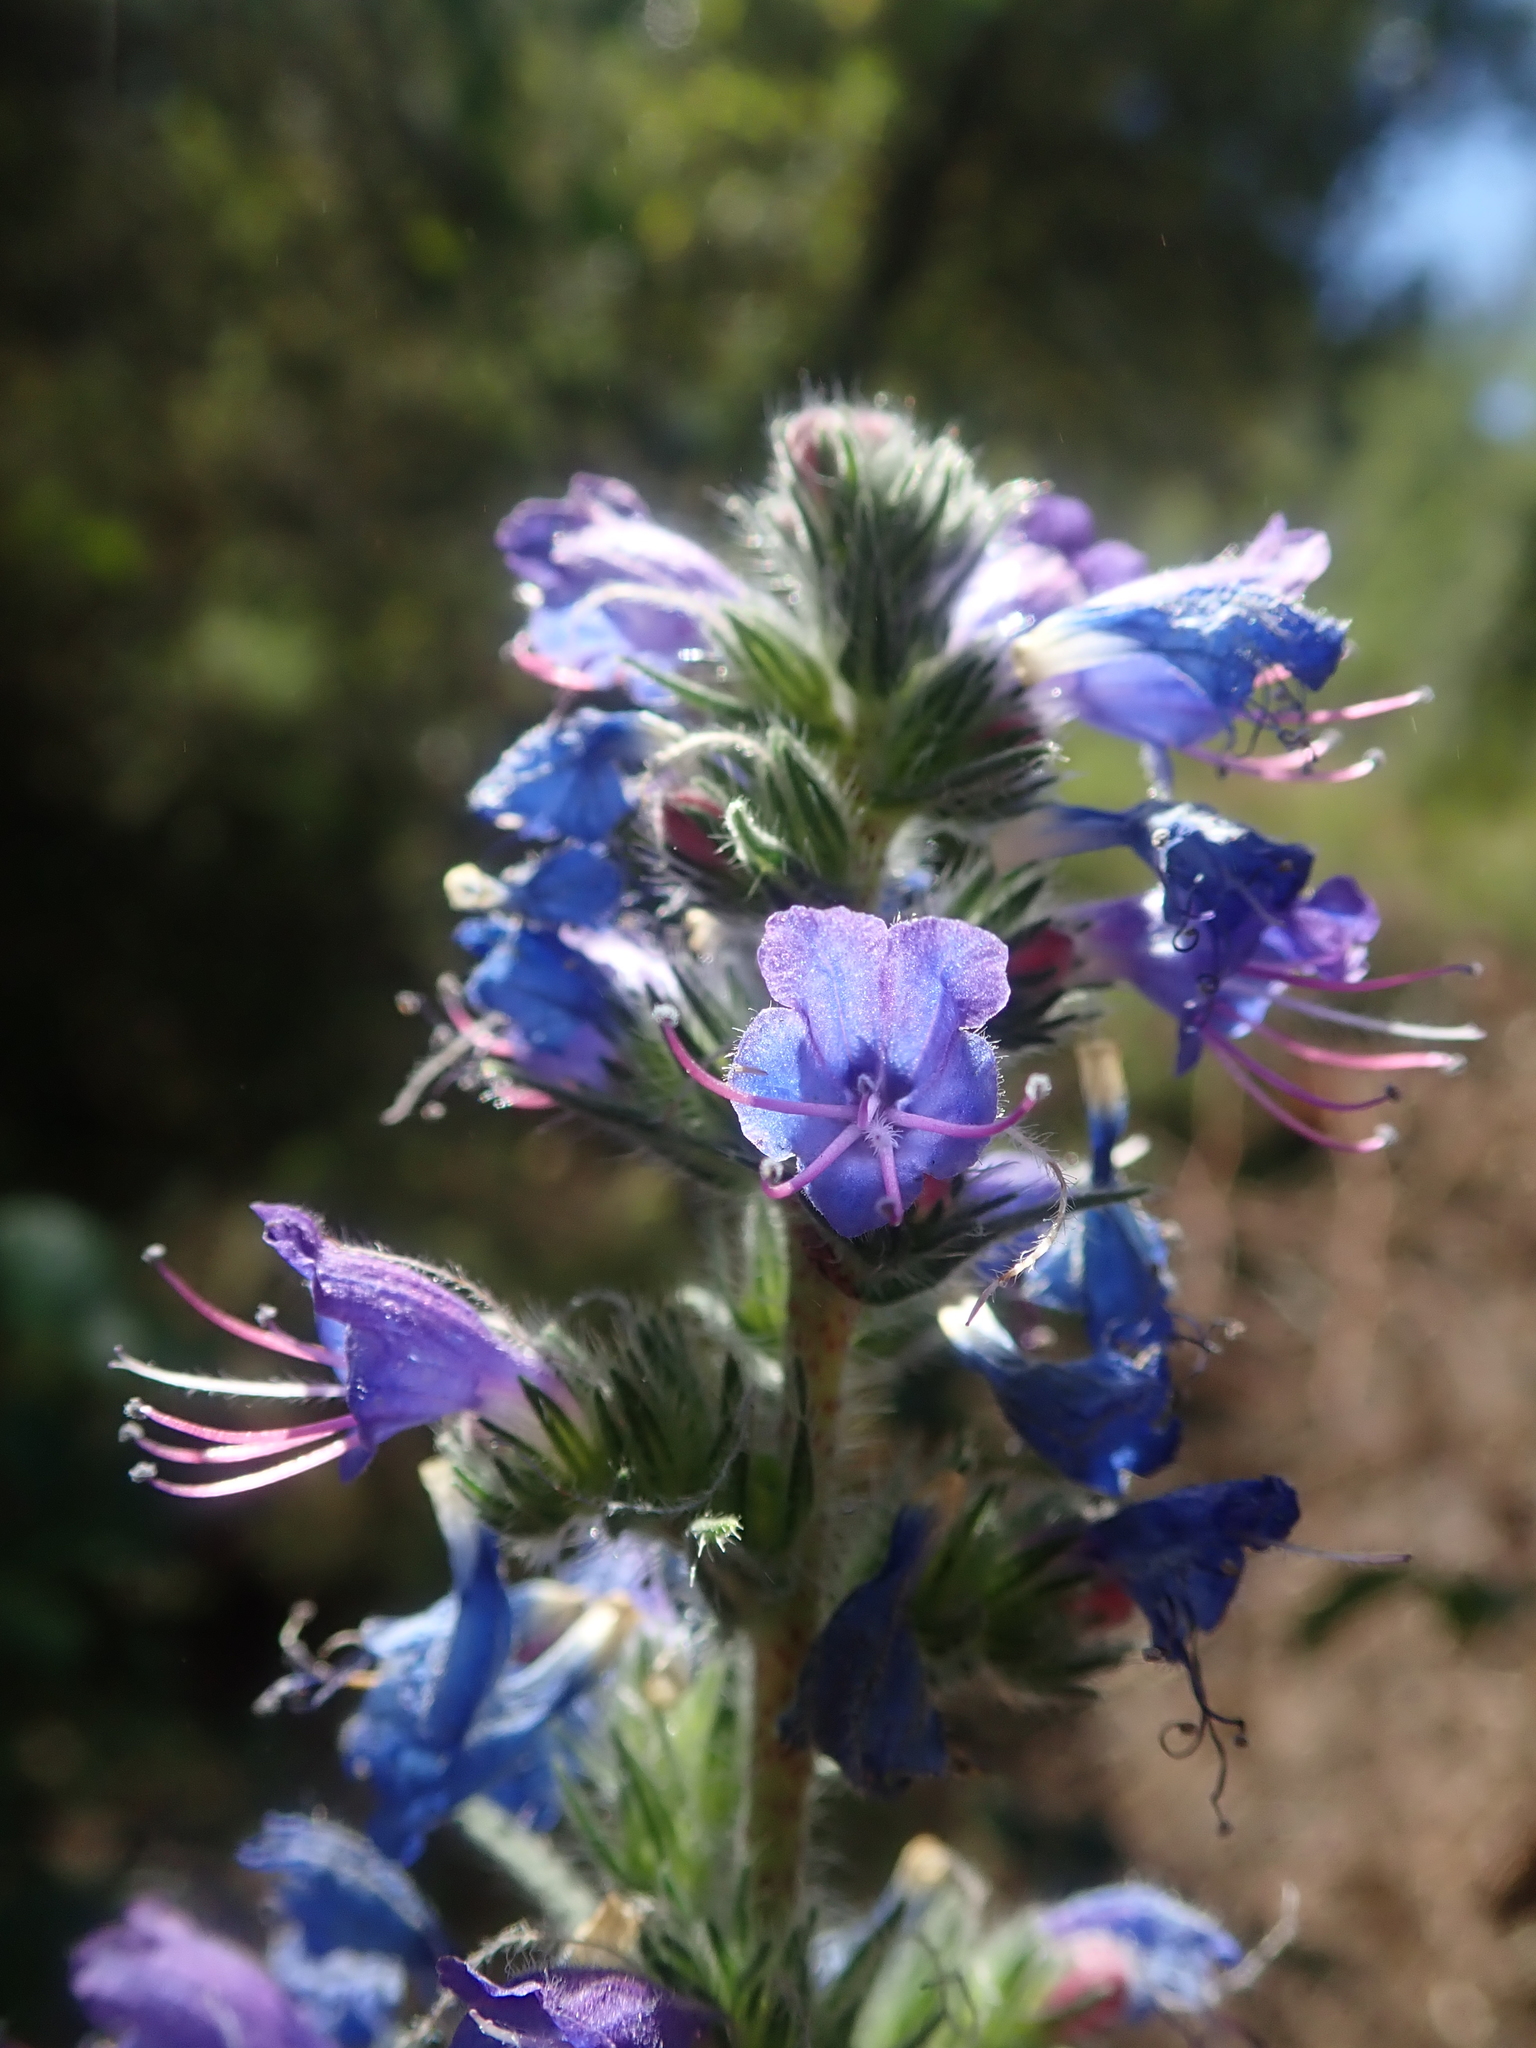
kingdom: Plantae
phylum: Tracheophyta
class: Magnoliopsida
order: Boraginales
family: Boraginaceae
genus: Echium
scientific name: Echium vulgare
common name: Common viper's bugloss
